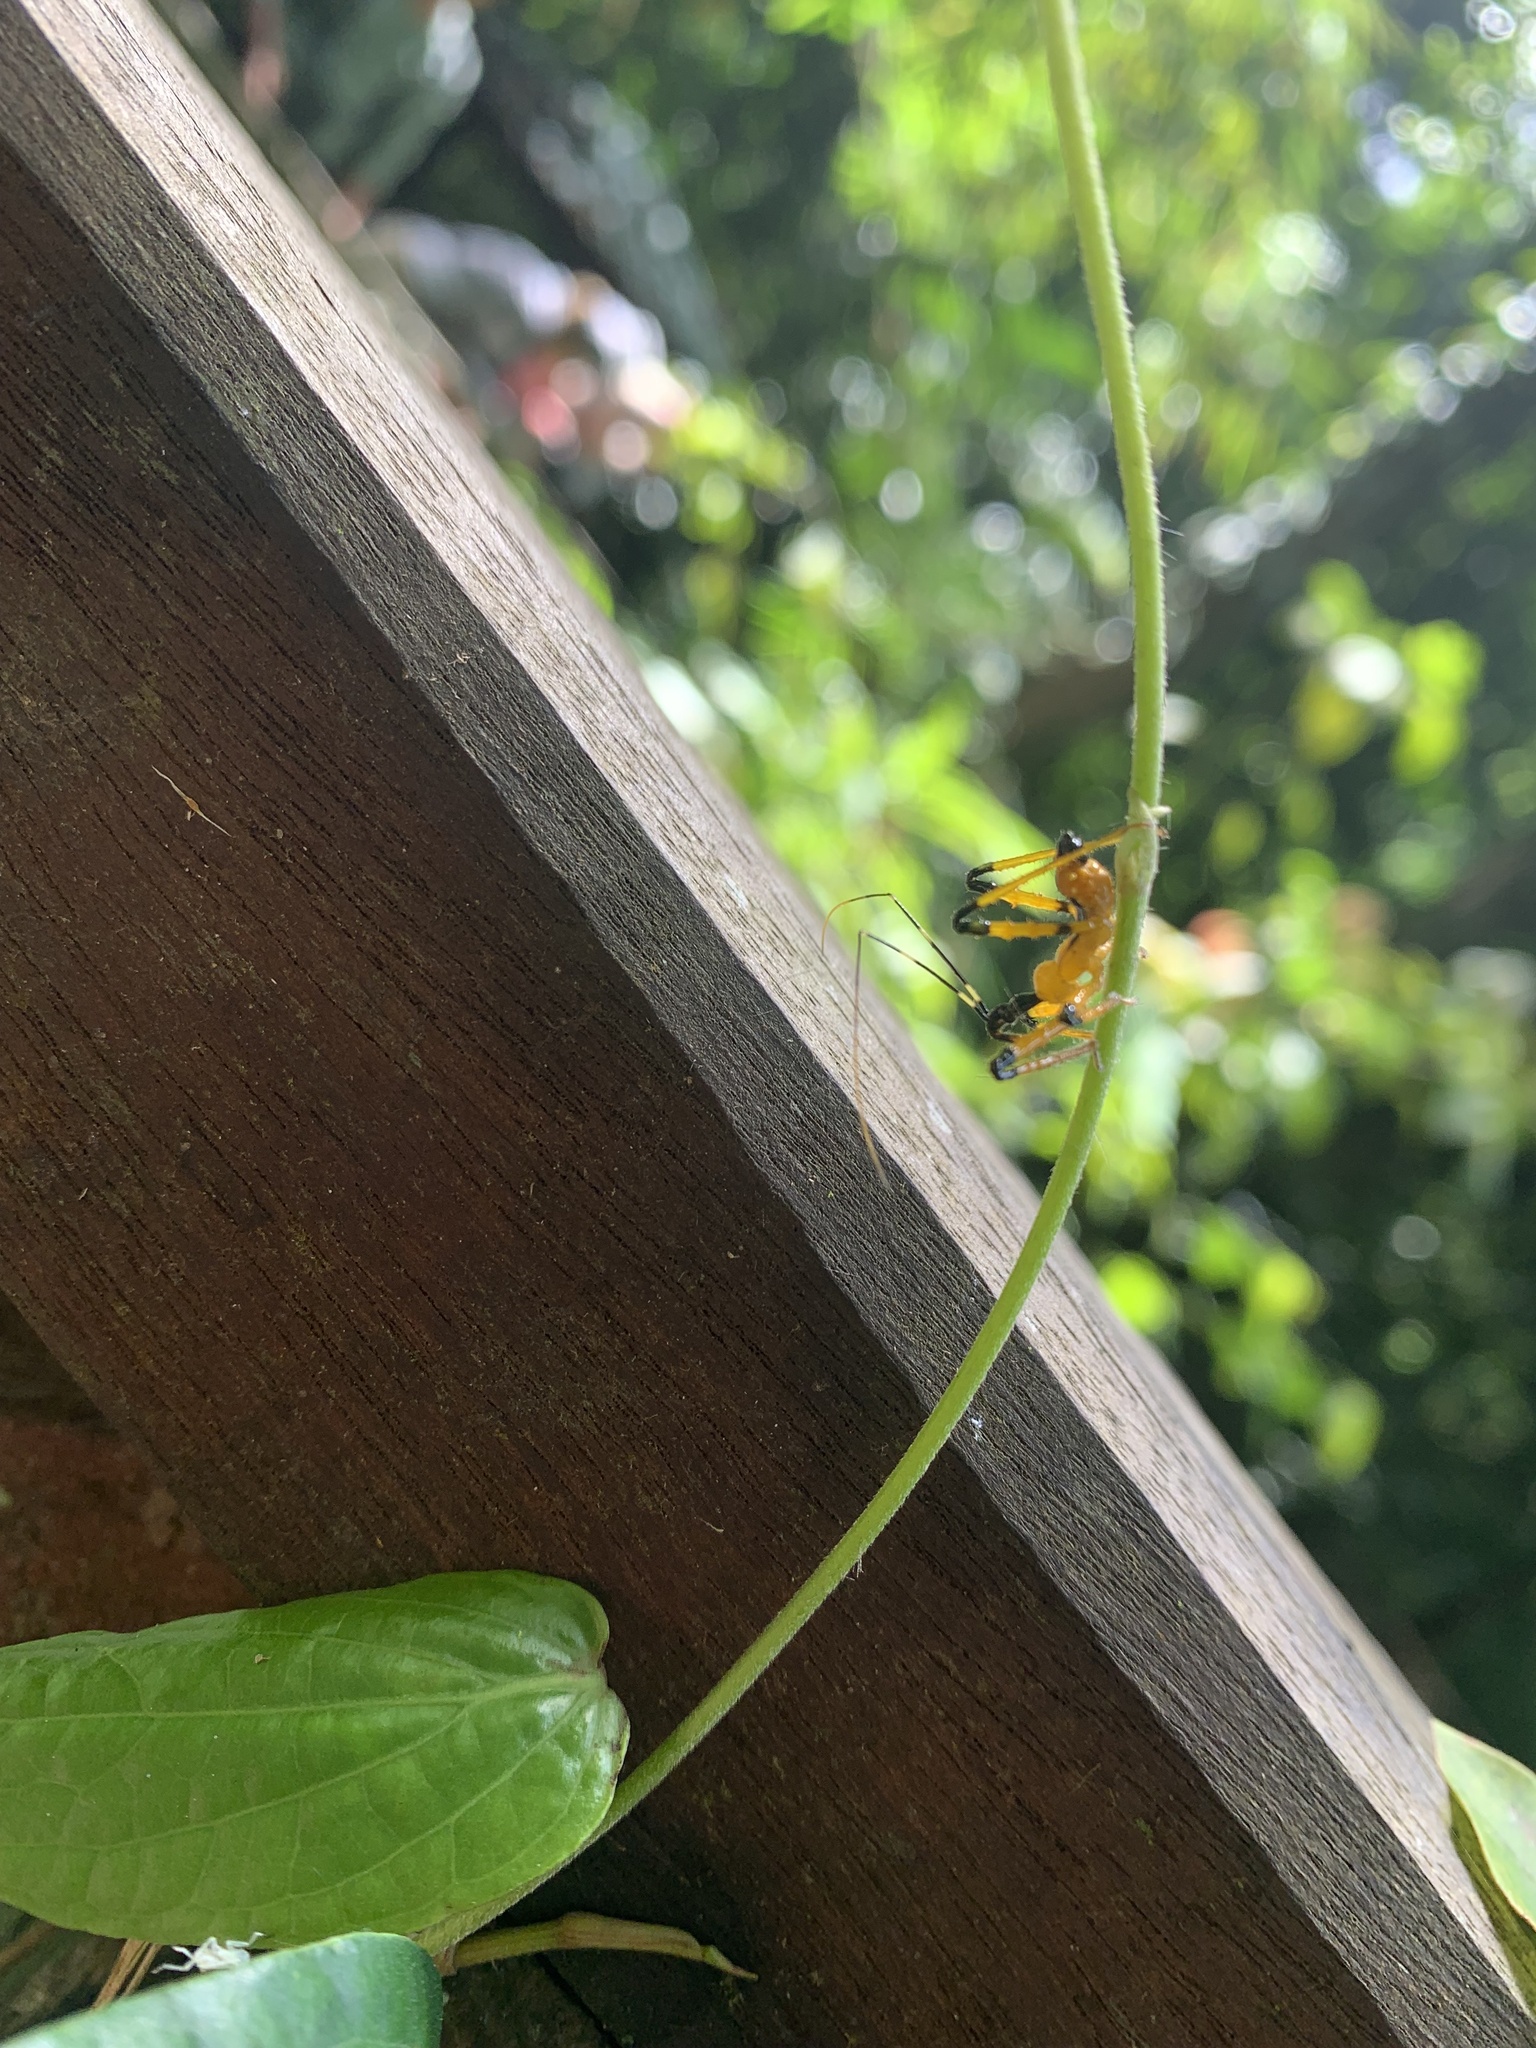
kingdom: Animalia
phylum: Arthropoda
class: Insecta
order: Hemiptera
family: Reduviidae
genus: Velinus
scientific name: Velinus nigrigenu
